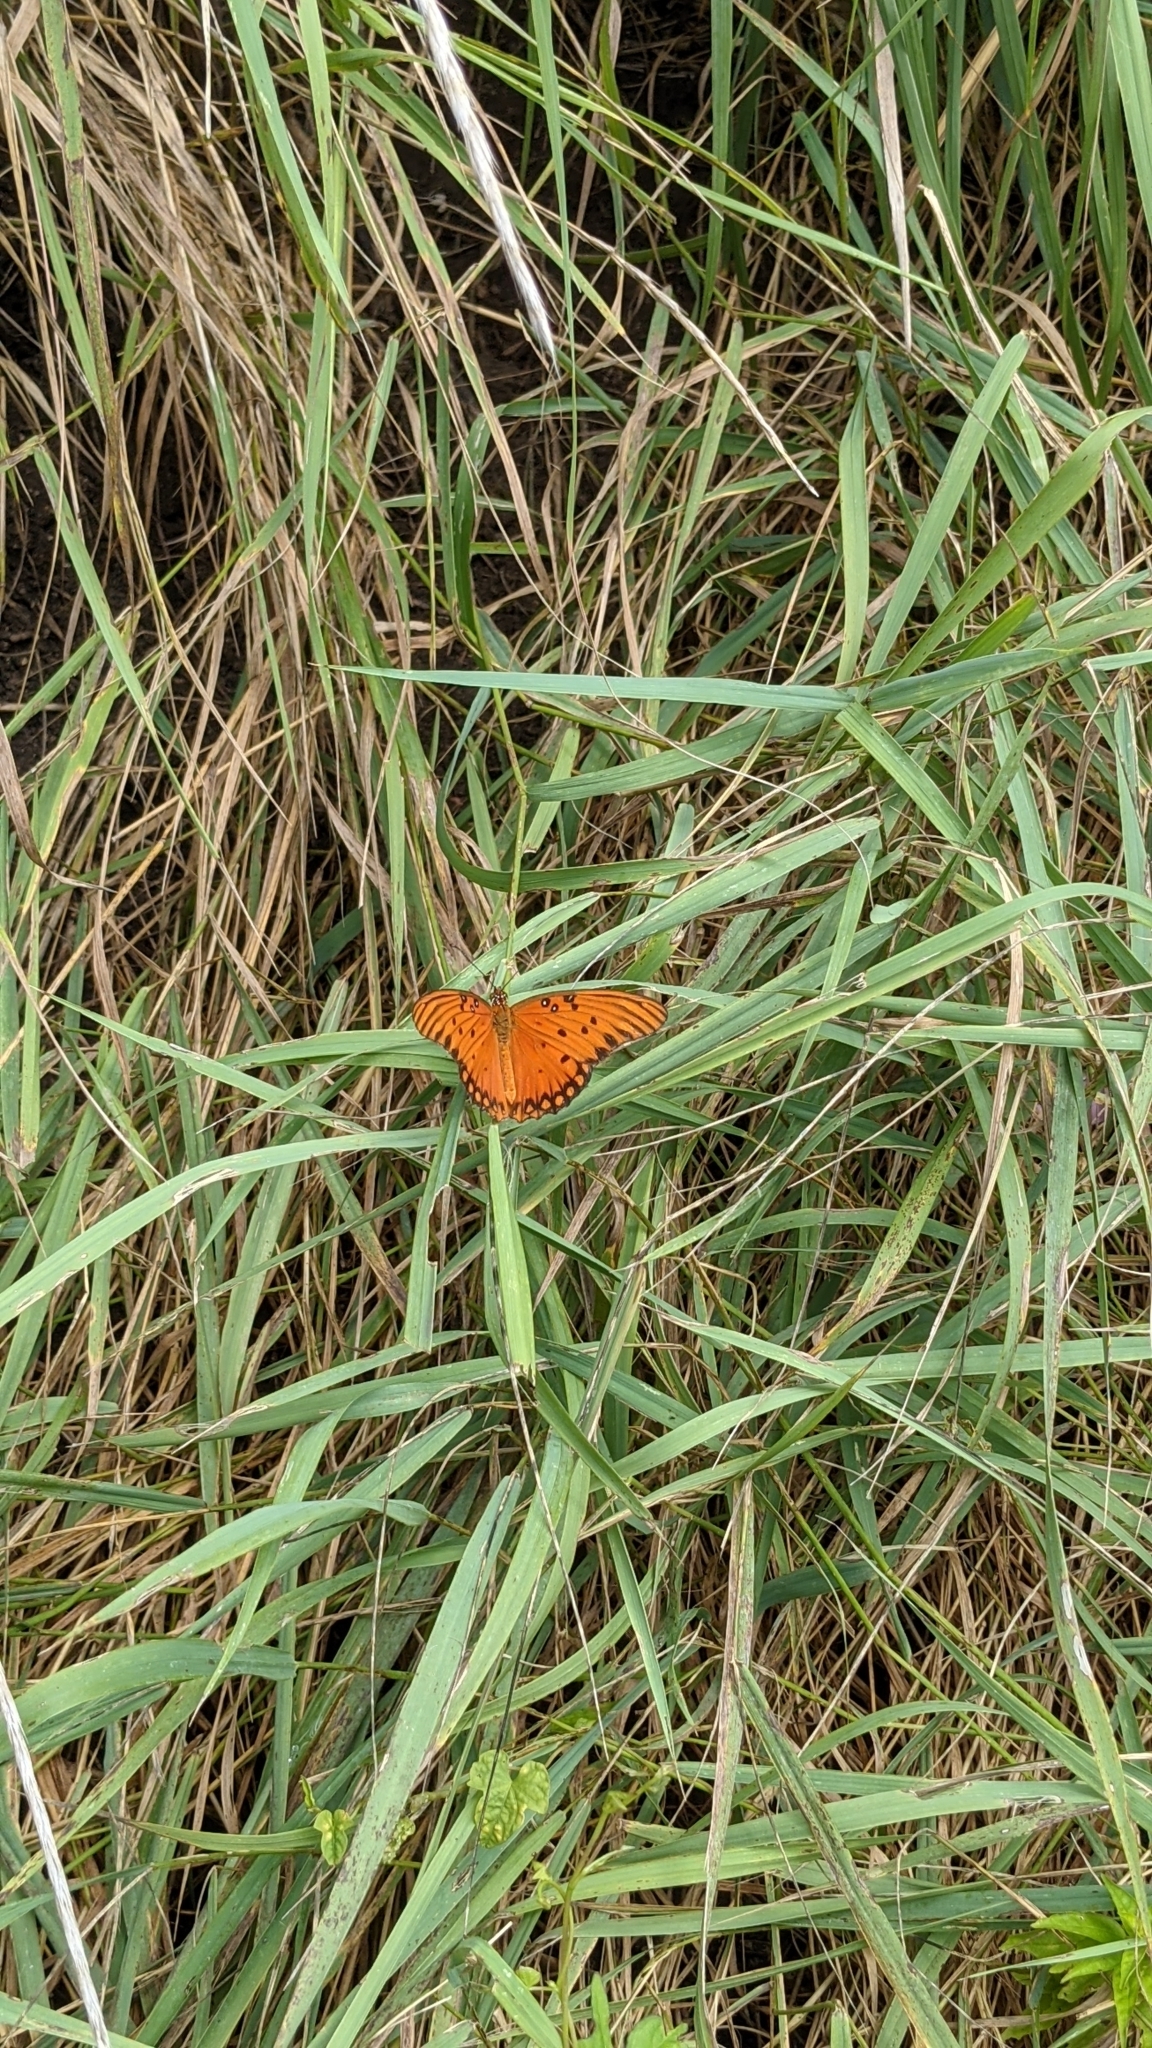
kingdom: Animalia
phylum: Arthropoda
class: Insecta
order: Lepidoptera
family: Nymphalidae
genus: Dione
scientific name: Dione vanillae
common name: Gulf fritillary
